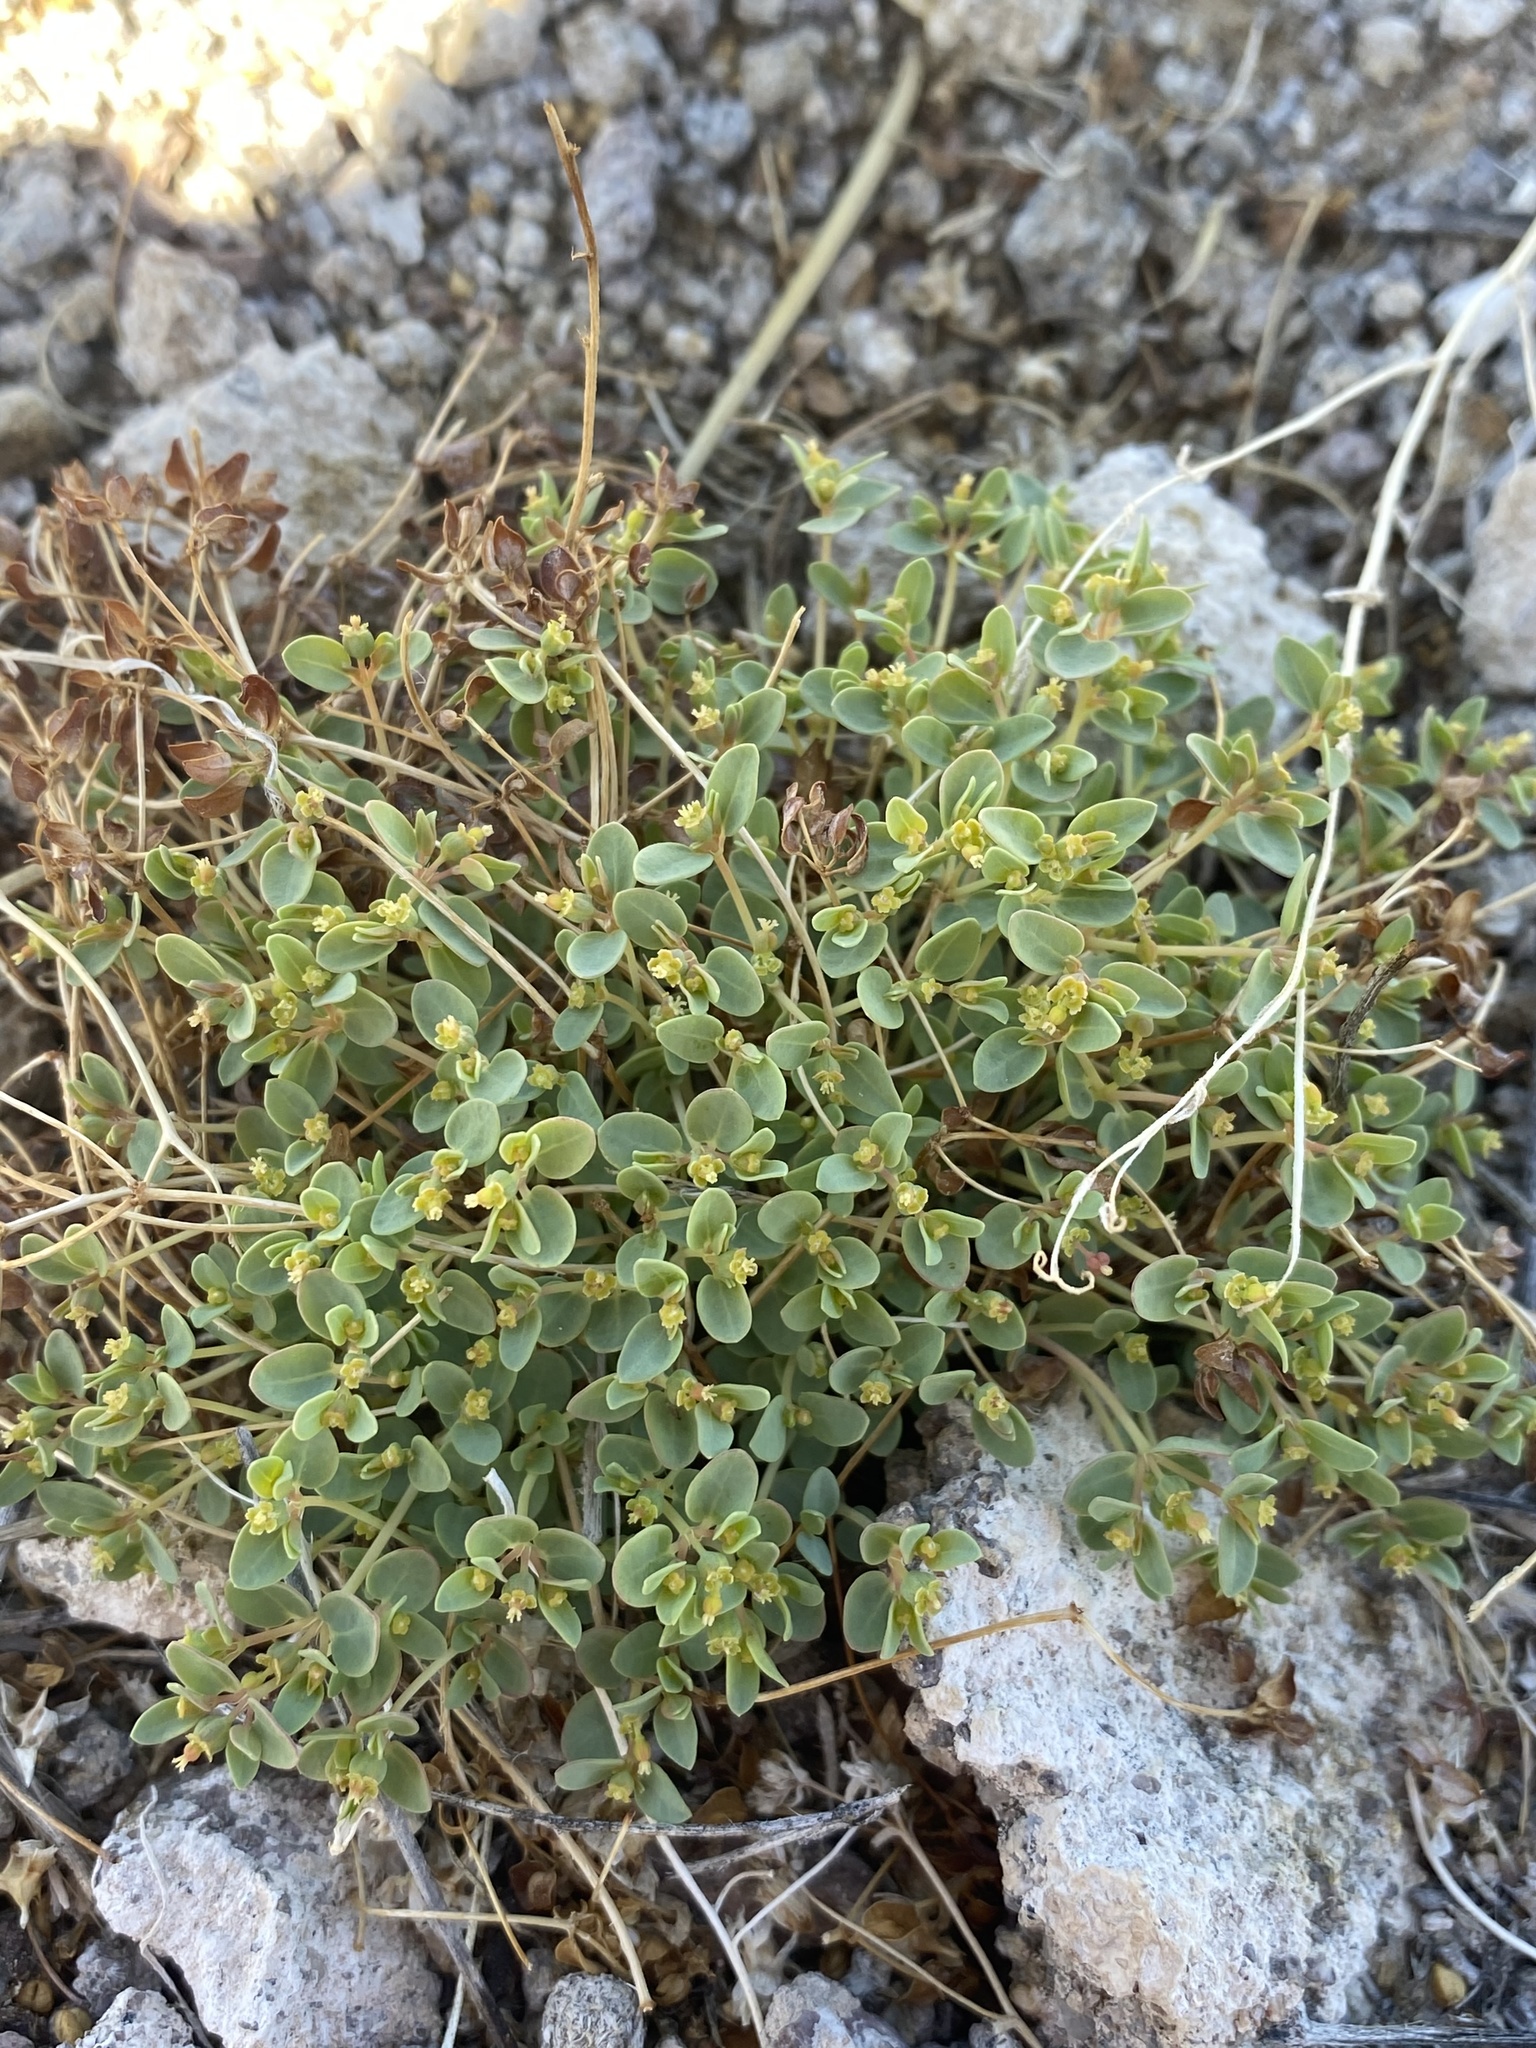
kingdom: Plantae
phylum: Tracheophyta
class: Magnoliopsida
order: Malpighiales
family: Euphorbiaceae
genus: Euphorbia
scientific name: Euphorbia fendleri
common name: Fendler's euphorbia
